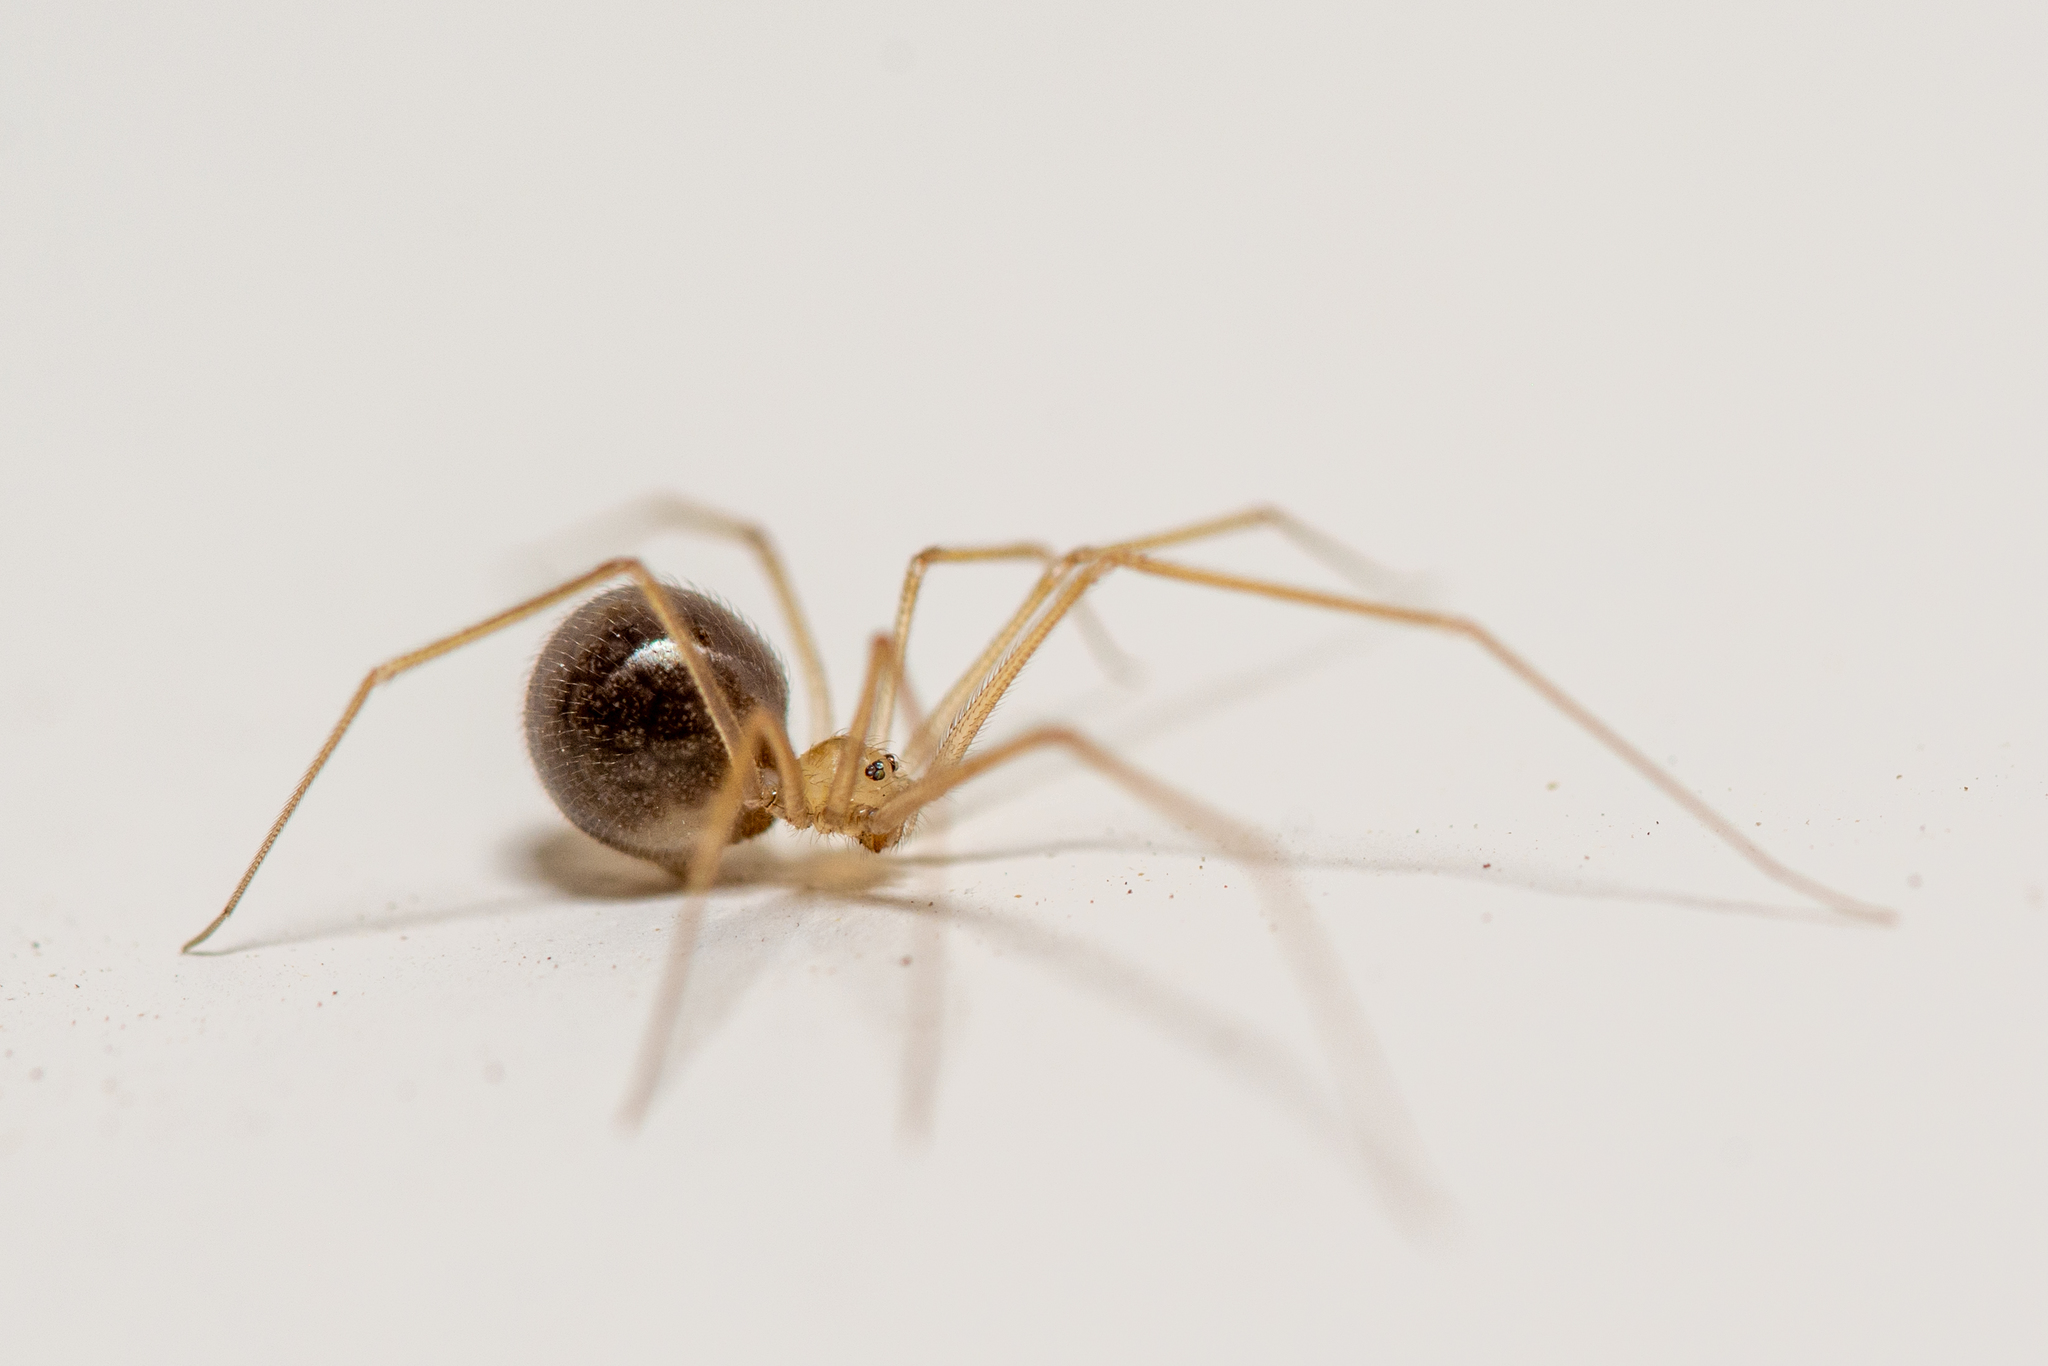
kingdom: Animalia
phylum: Arthropoda
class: Arachnida
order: Araneae
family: Pholcidae
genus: Spermophora
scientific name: Spermophora senoculata
